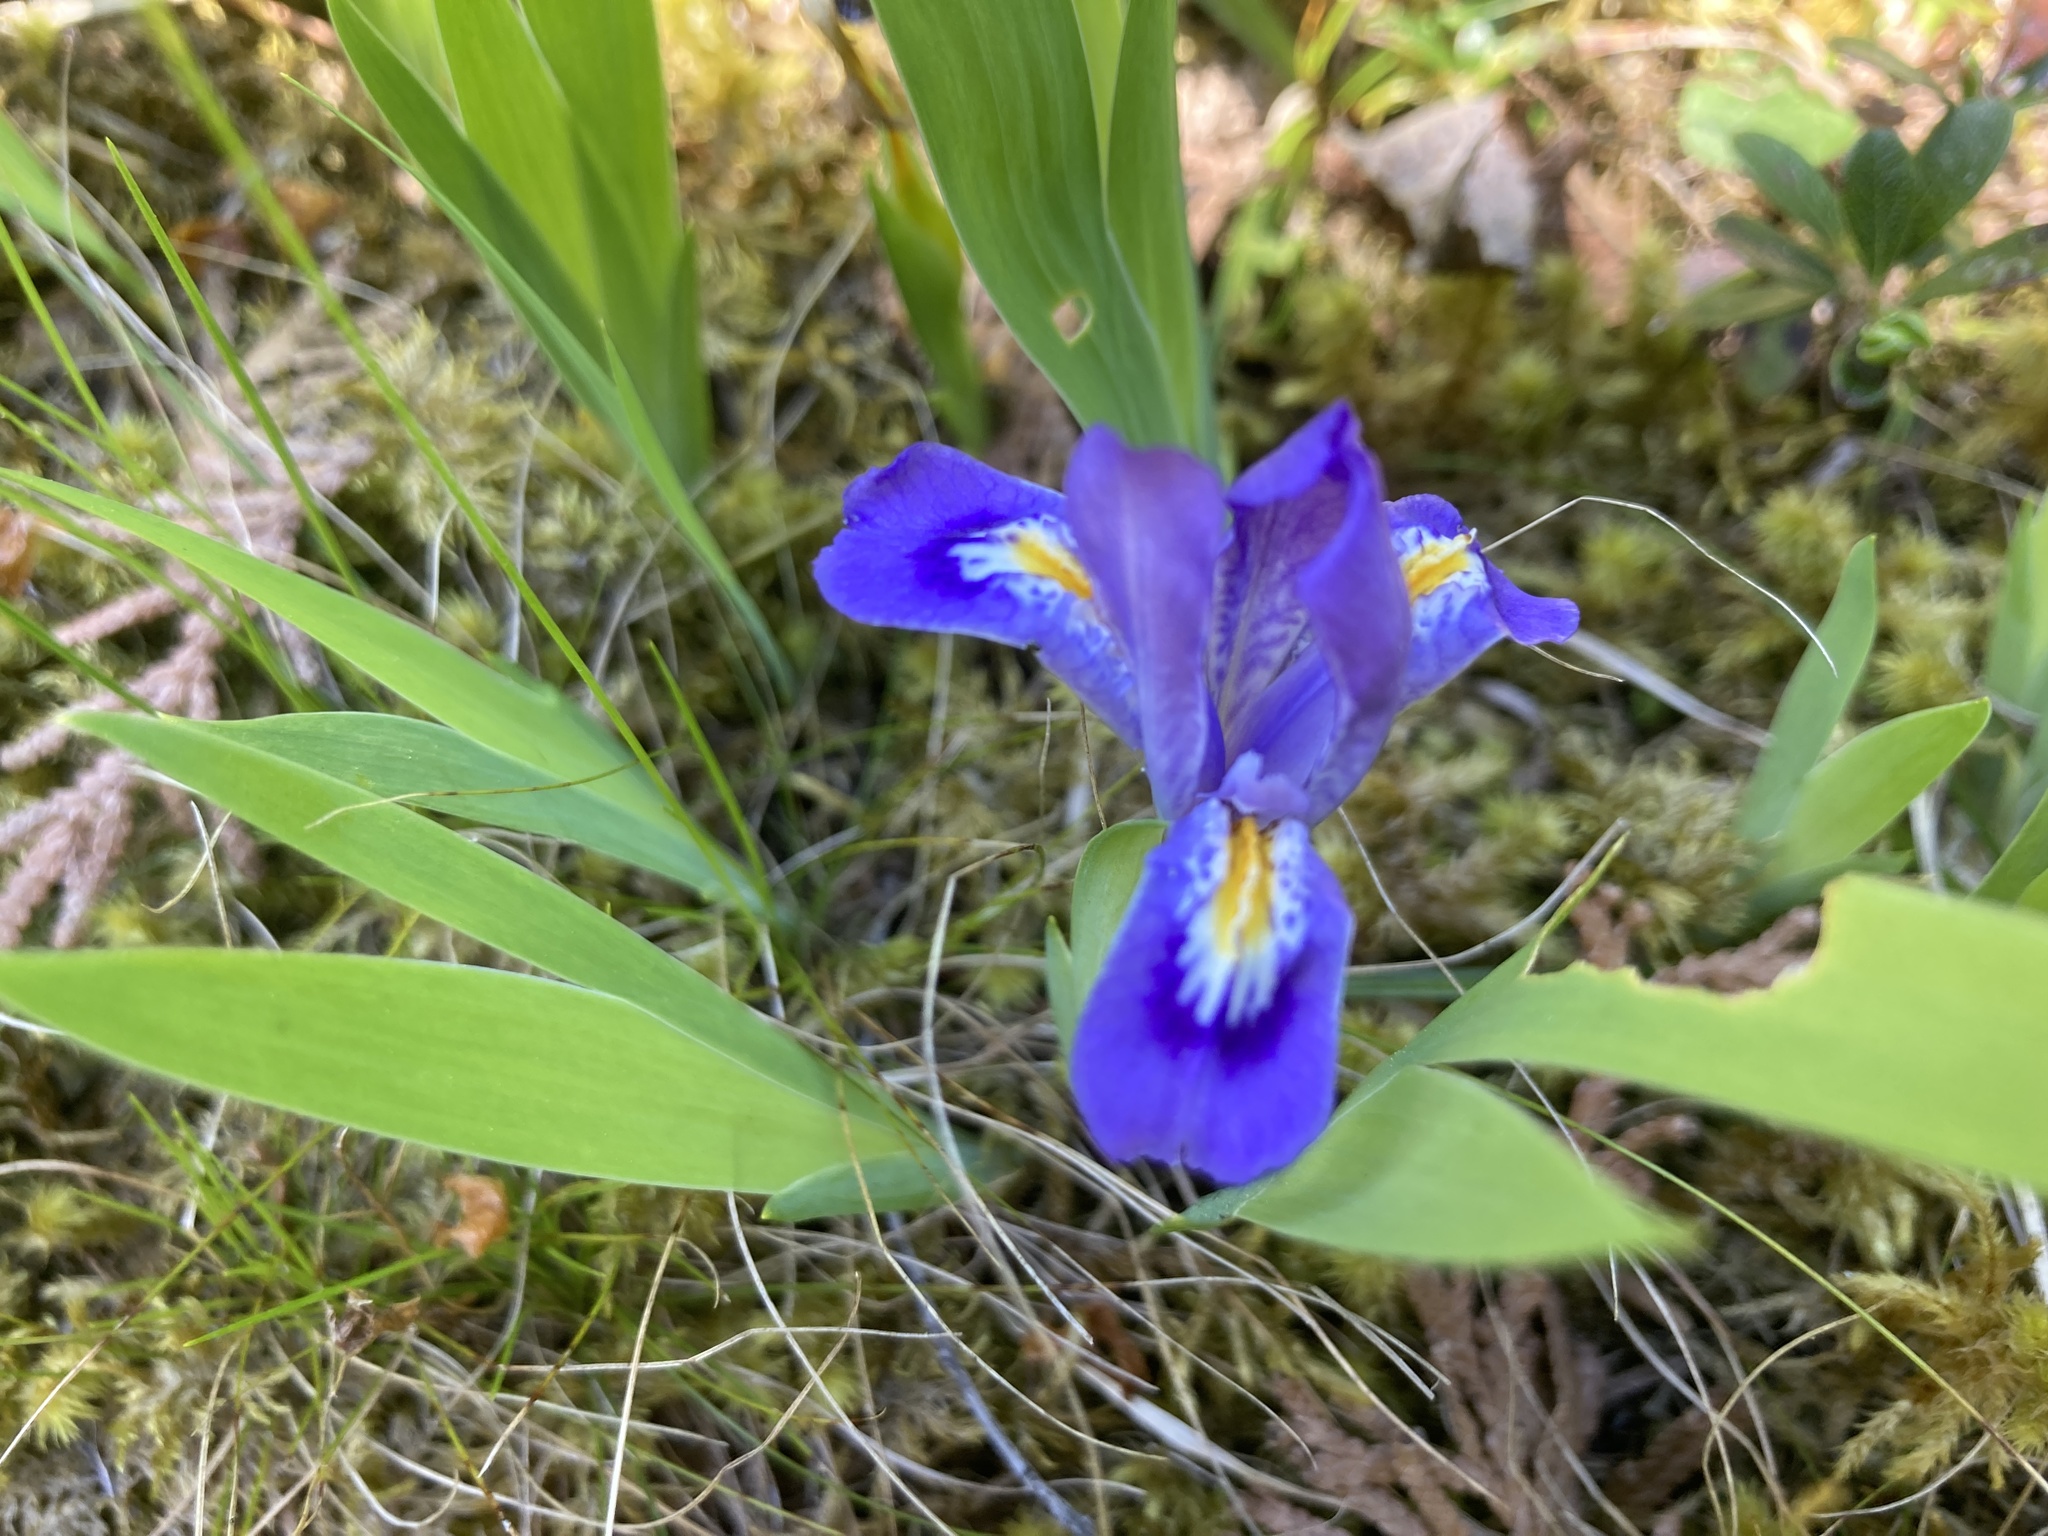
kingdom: Plantae
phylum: Tracheophyta
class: Liliopsida
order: Asparagales
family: Iridaceae
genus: Iris
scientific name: Iris lacustris
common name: Dwarf lake iris
